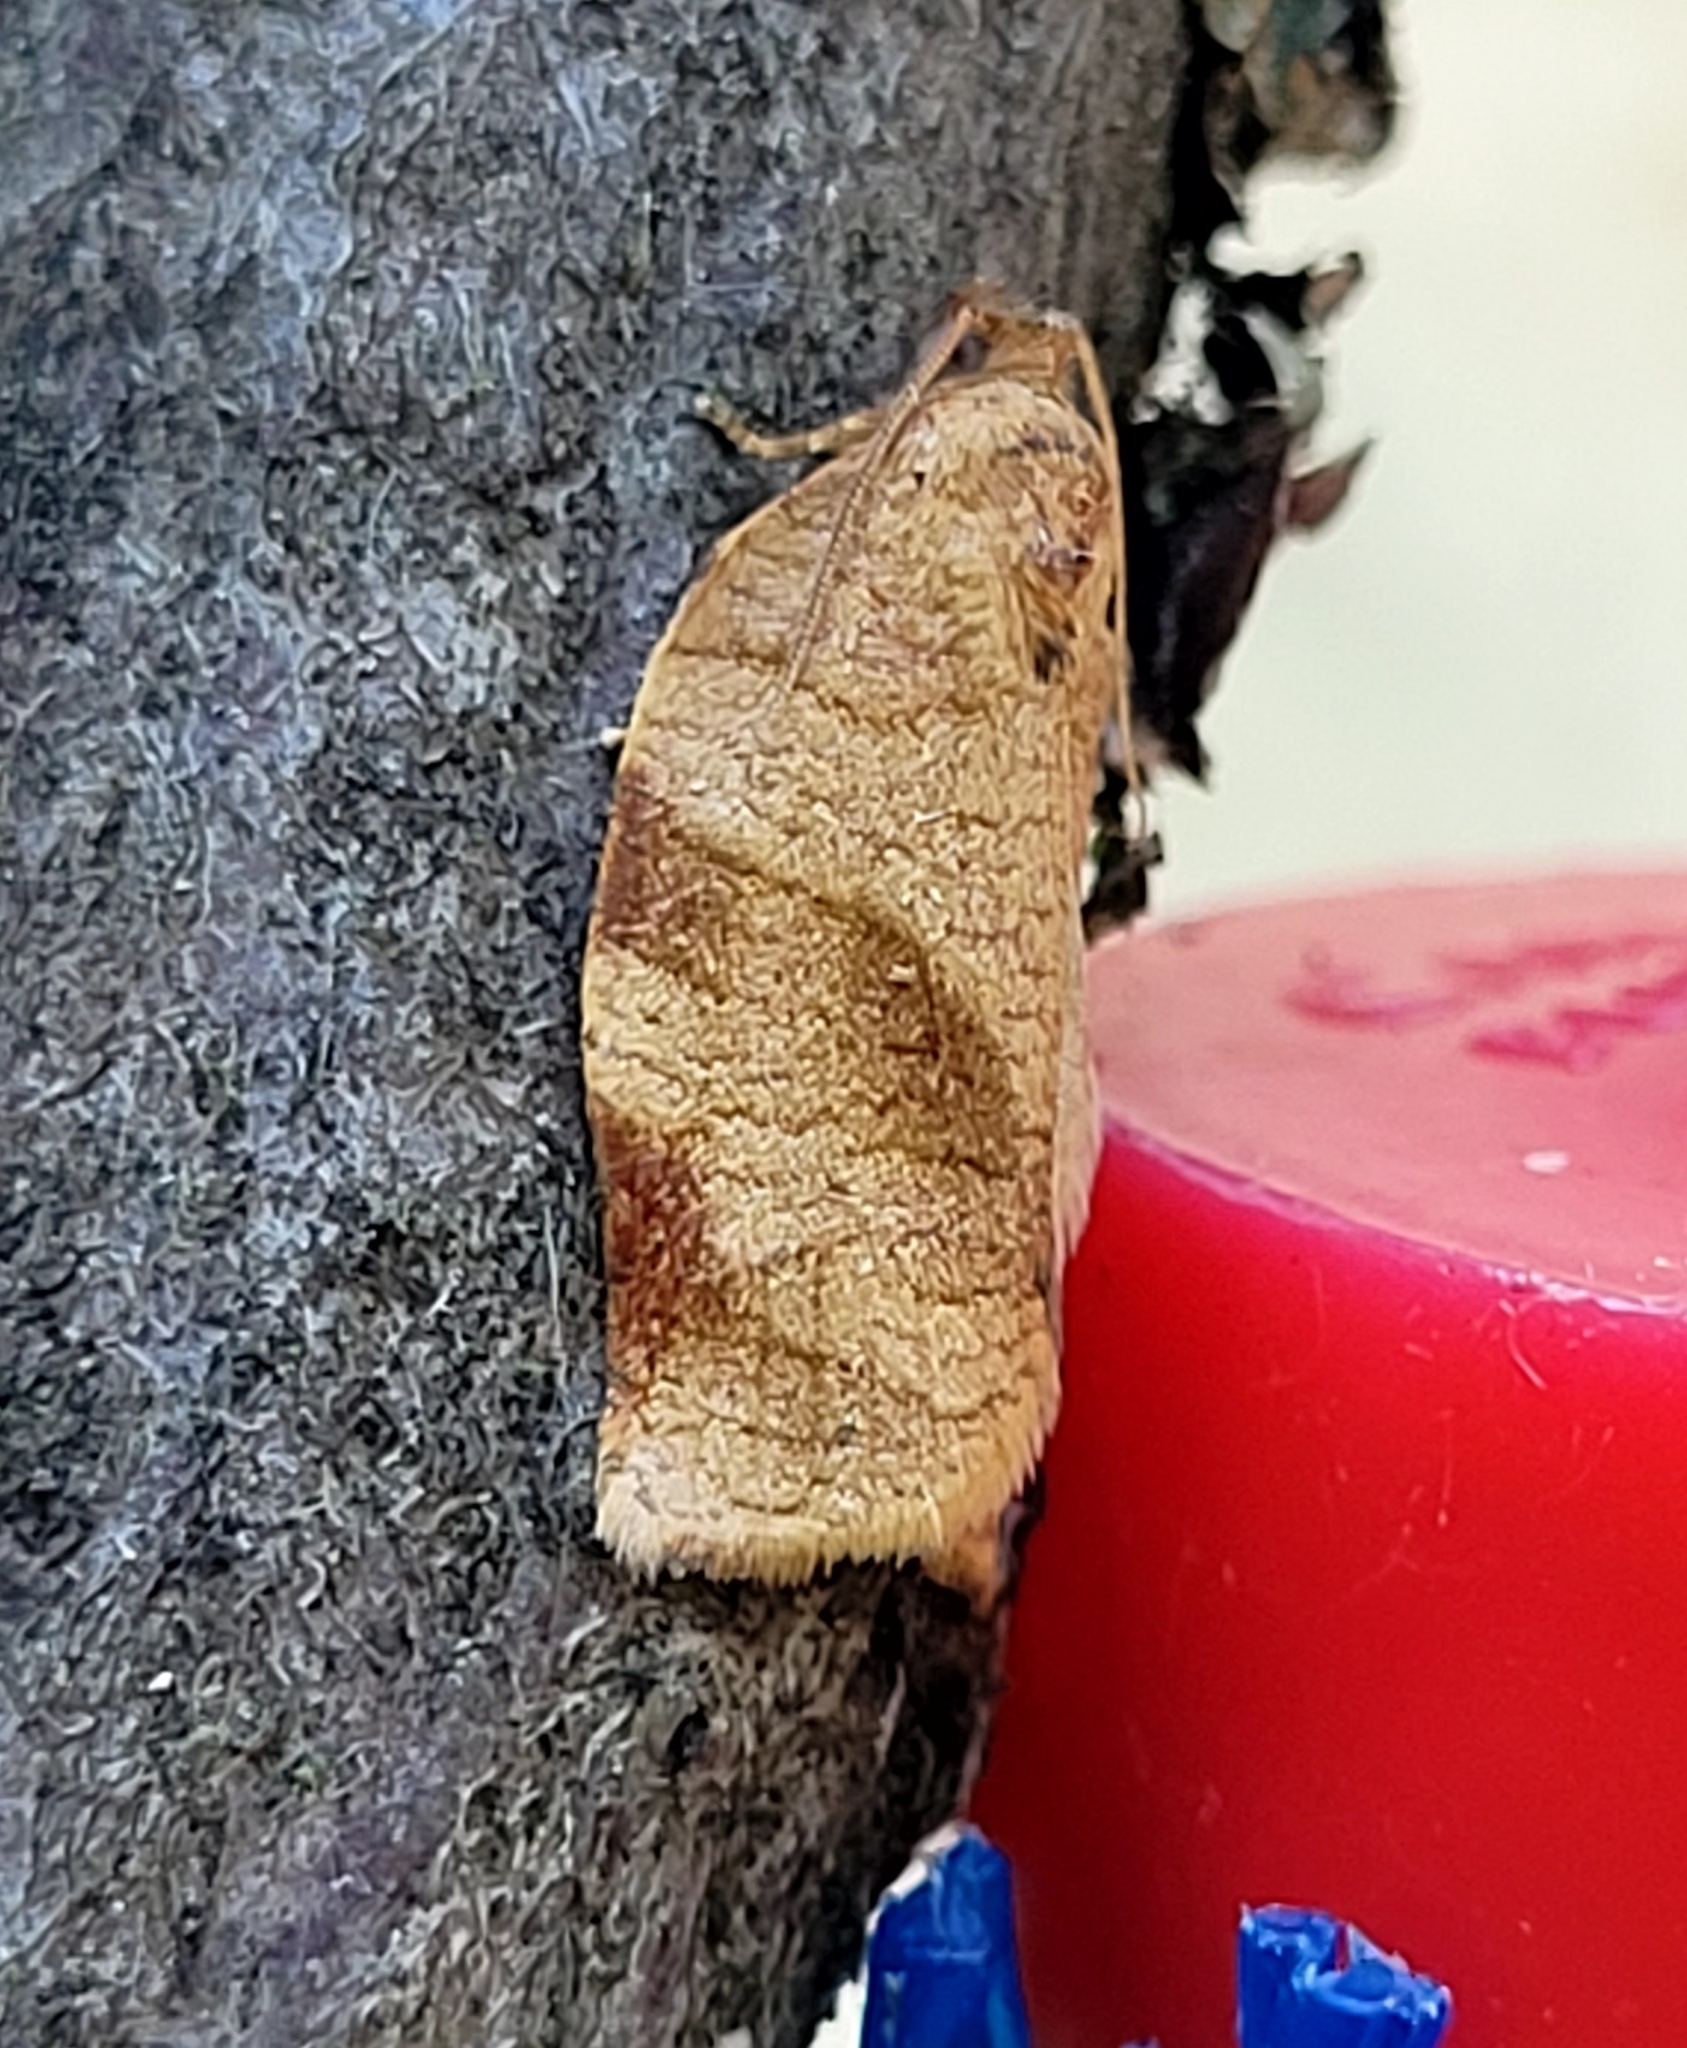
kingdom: Animalia
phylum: Arthropoda
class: Insecta
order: Lepidoptera
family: Tortricidae
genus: Choristoneura
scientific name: Choristoneura rosaceana
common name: Oblique-banded leafroller moth
